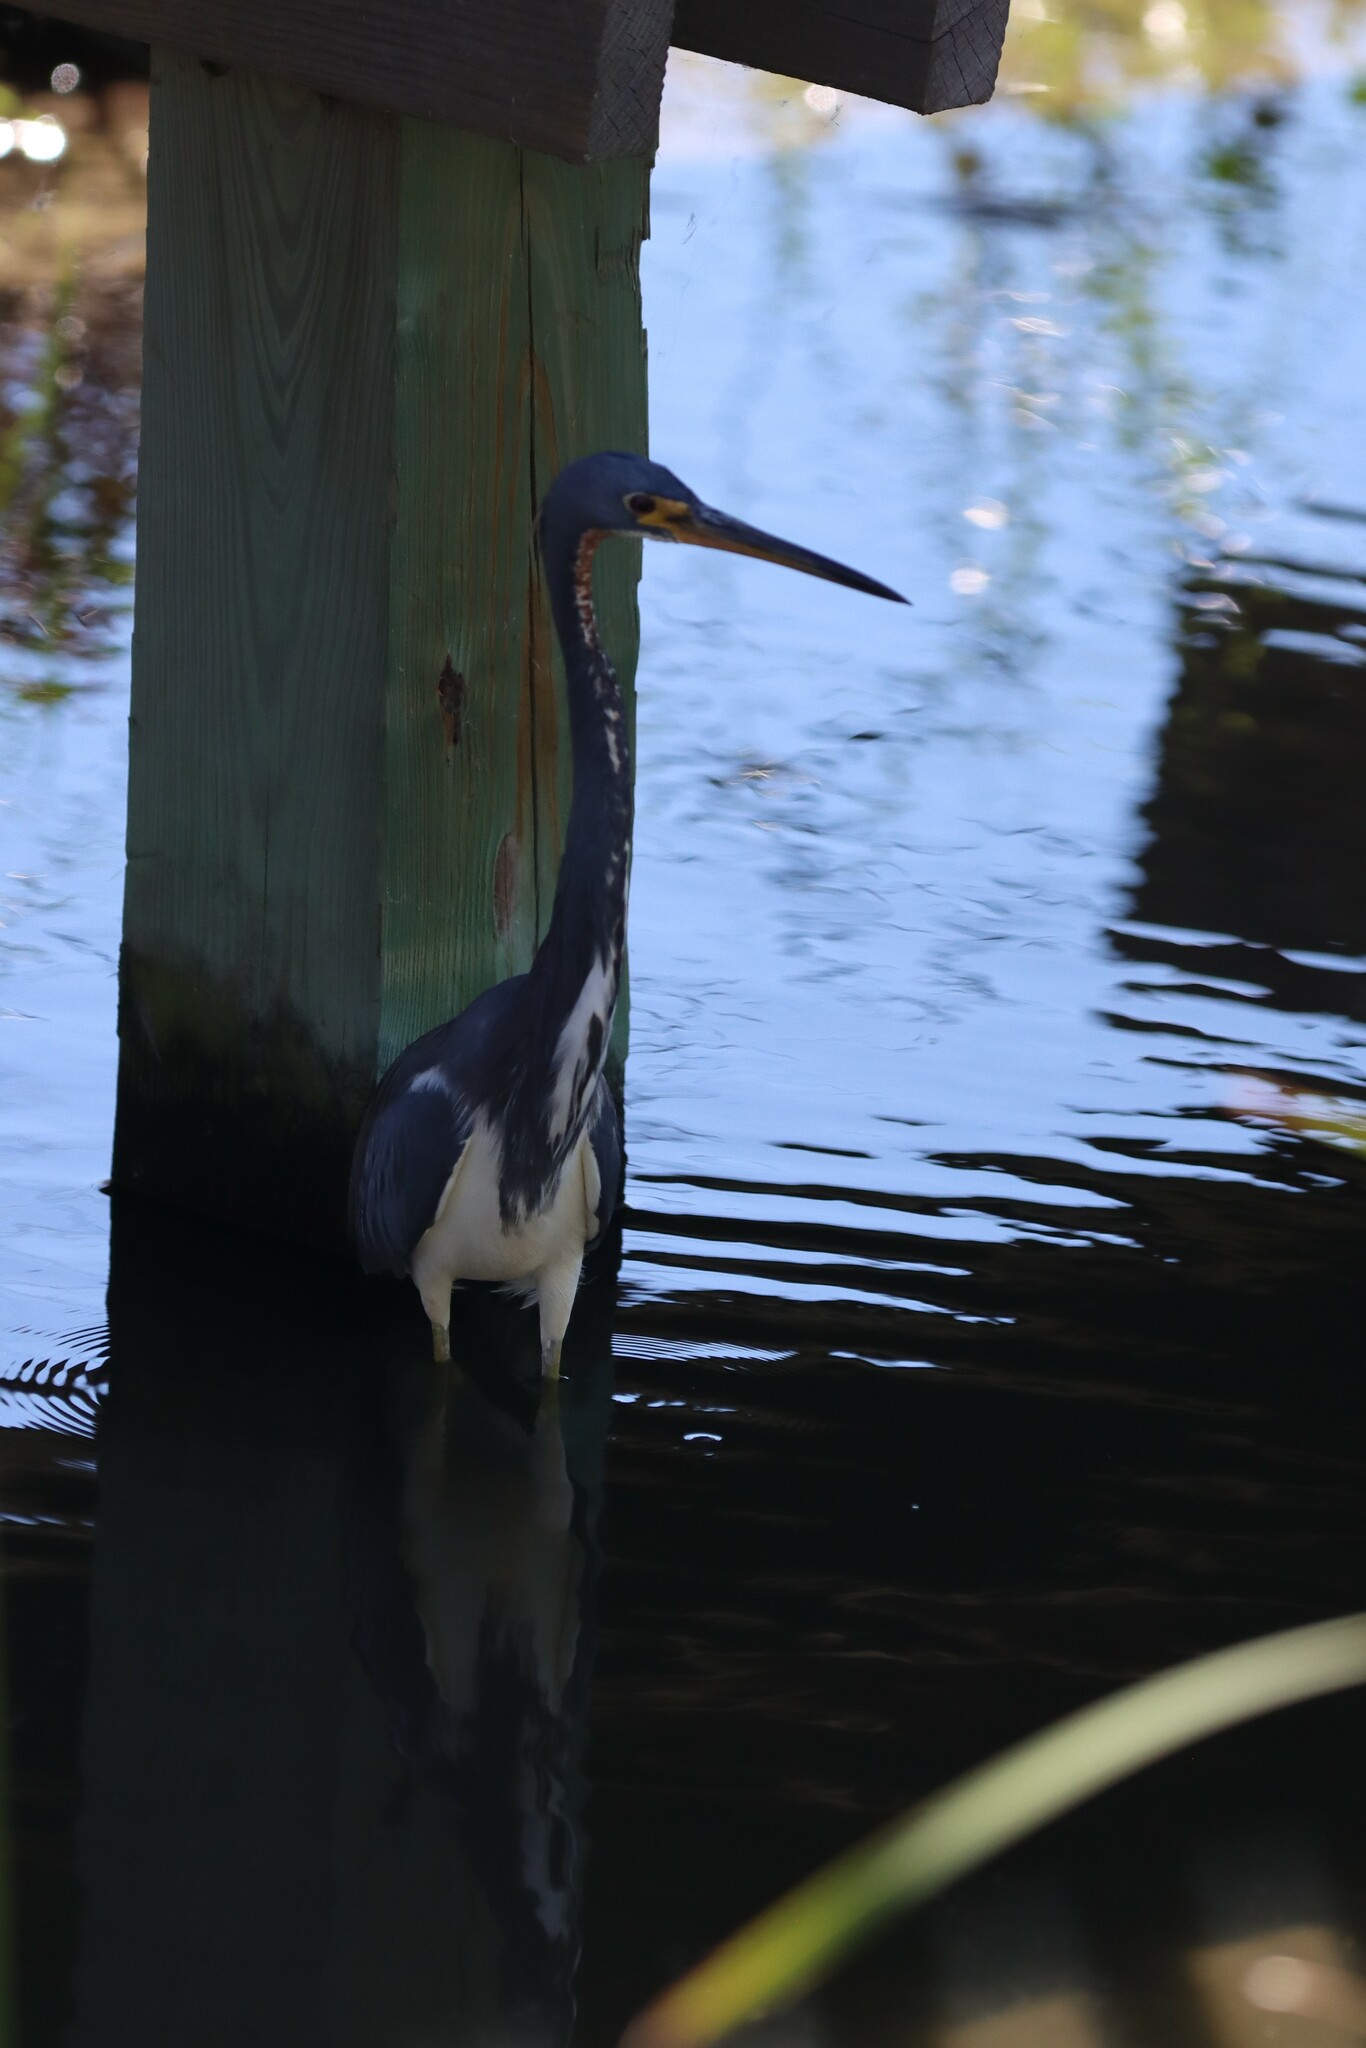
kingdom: Animalia
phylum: Chordata
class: Aves
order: Pelecaniformes
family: Ardeidae
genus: Egretta
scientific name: Egretta tricolor
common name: Tricolored heron
